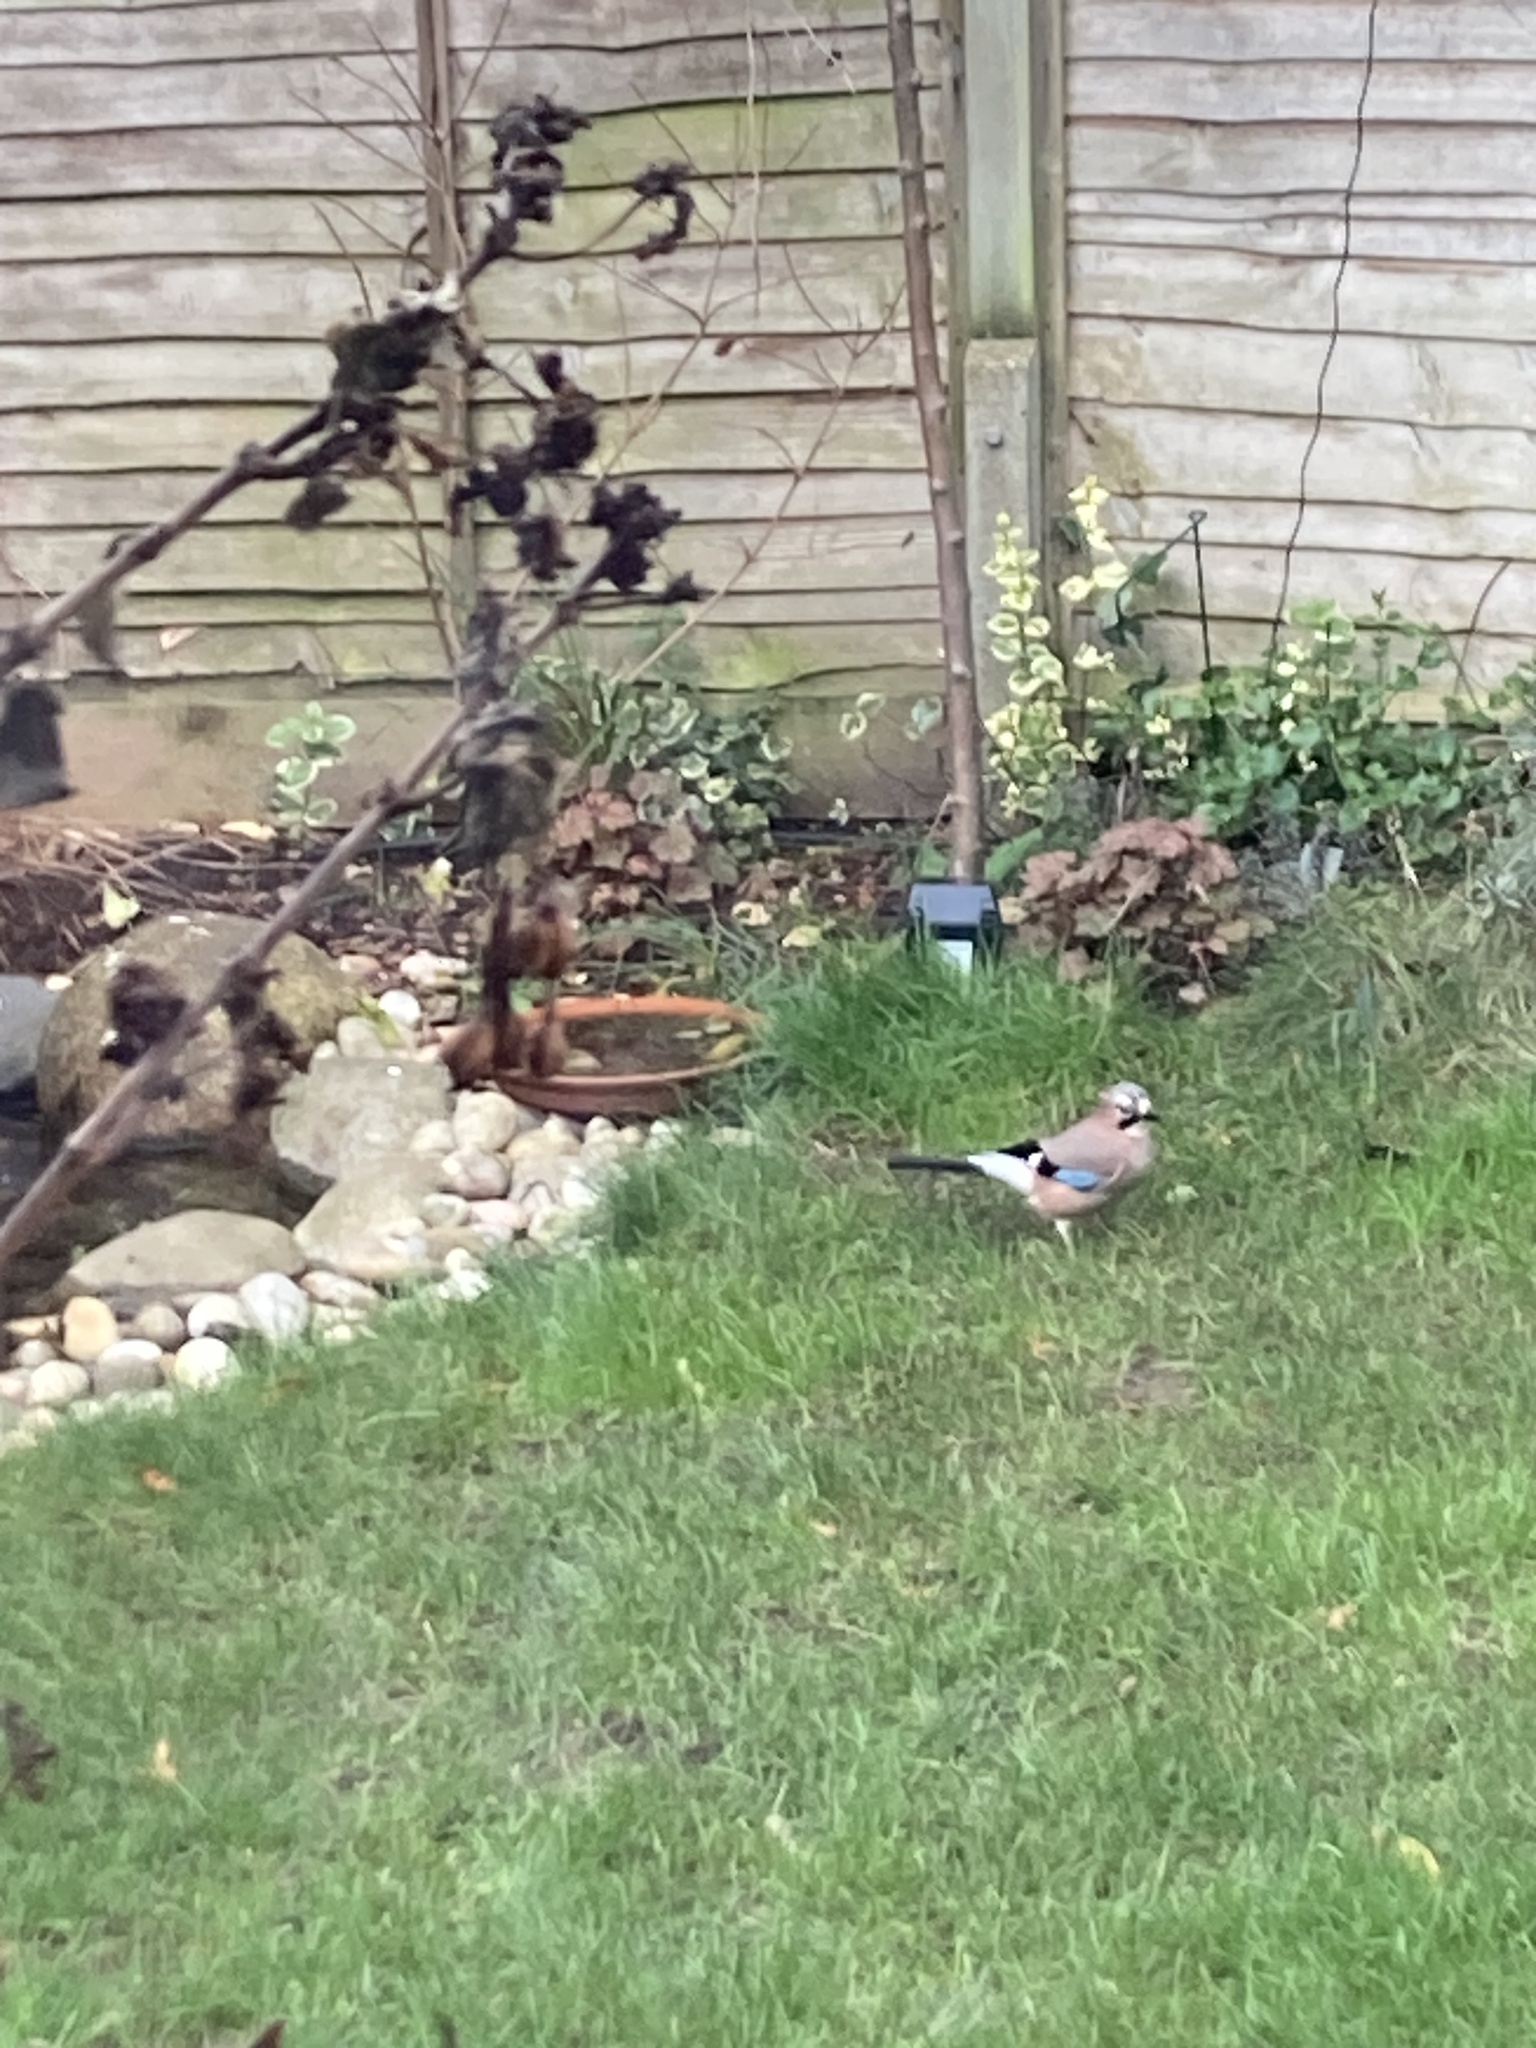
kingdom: Animalia
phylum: Chordata
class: Aves
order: Passeriformes
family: Corvidae
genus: Garrulus
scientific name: Garrulus glandarius
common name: Eurasian jay
